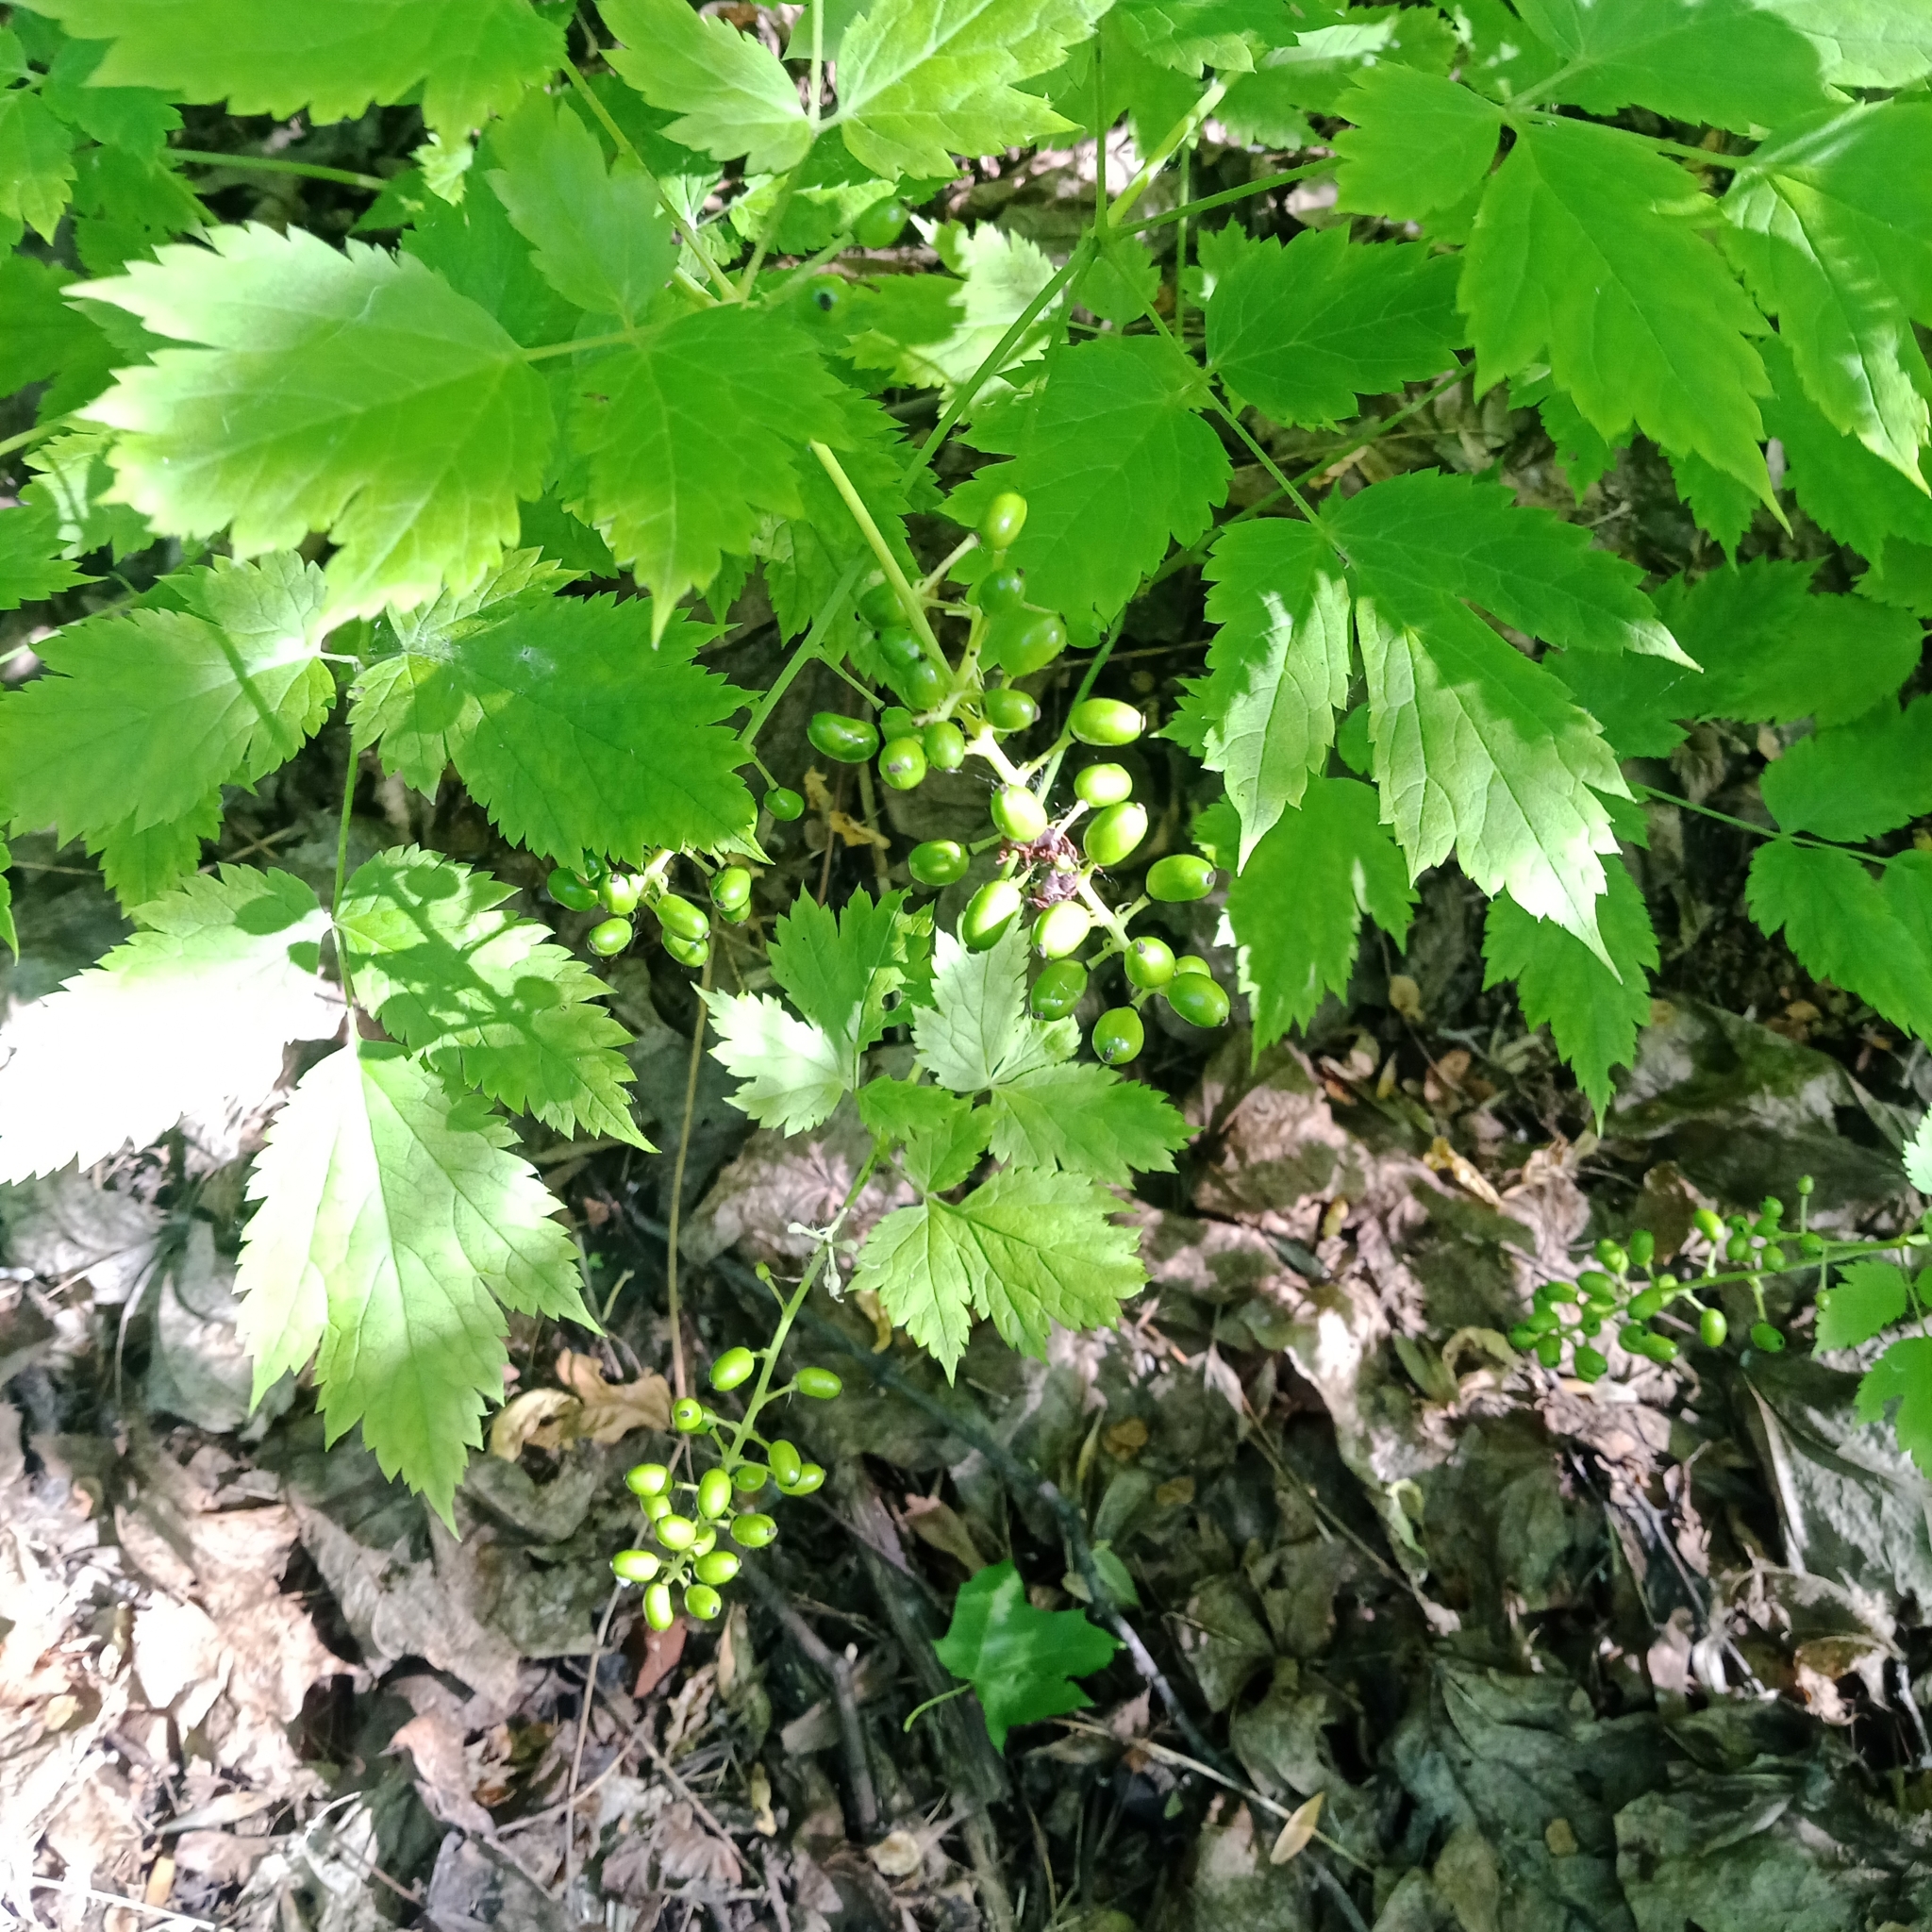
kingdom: Plantae
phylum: Tracheophyta
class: Magnoliopsida
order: Ranunculales
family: Ranunculaceae
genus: Actaea
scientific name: Actaea spicata
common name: Baneberry
